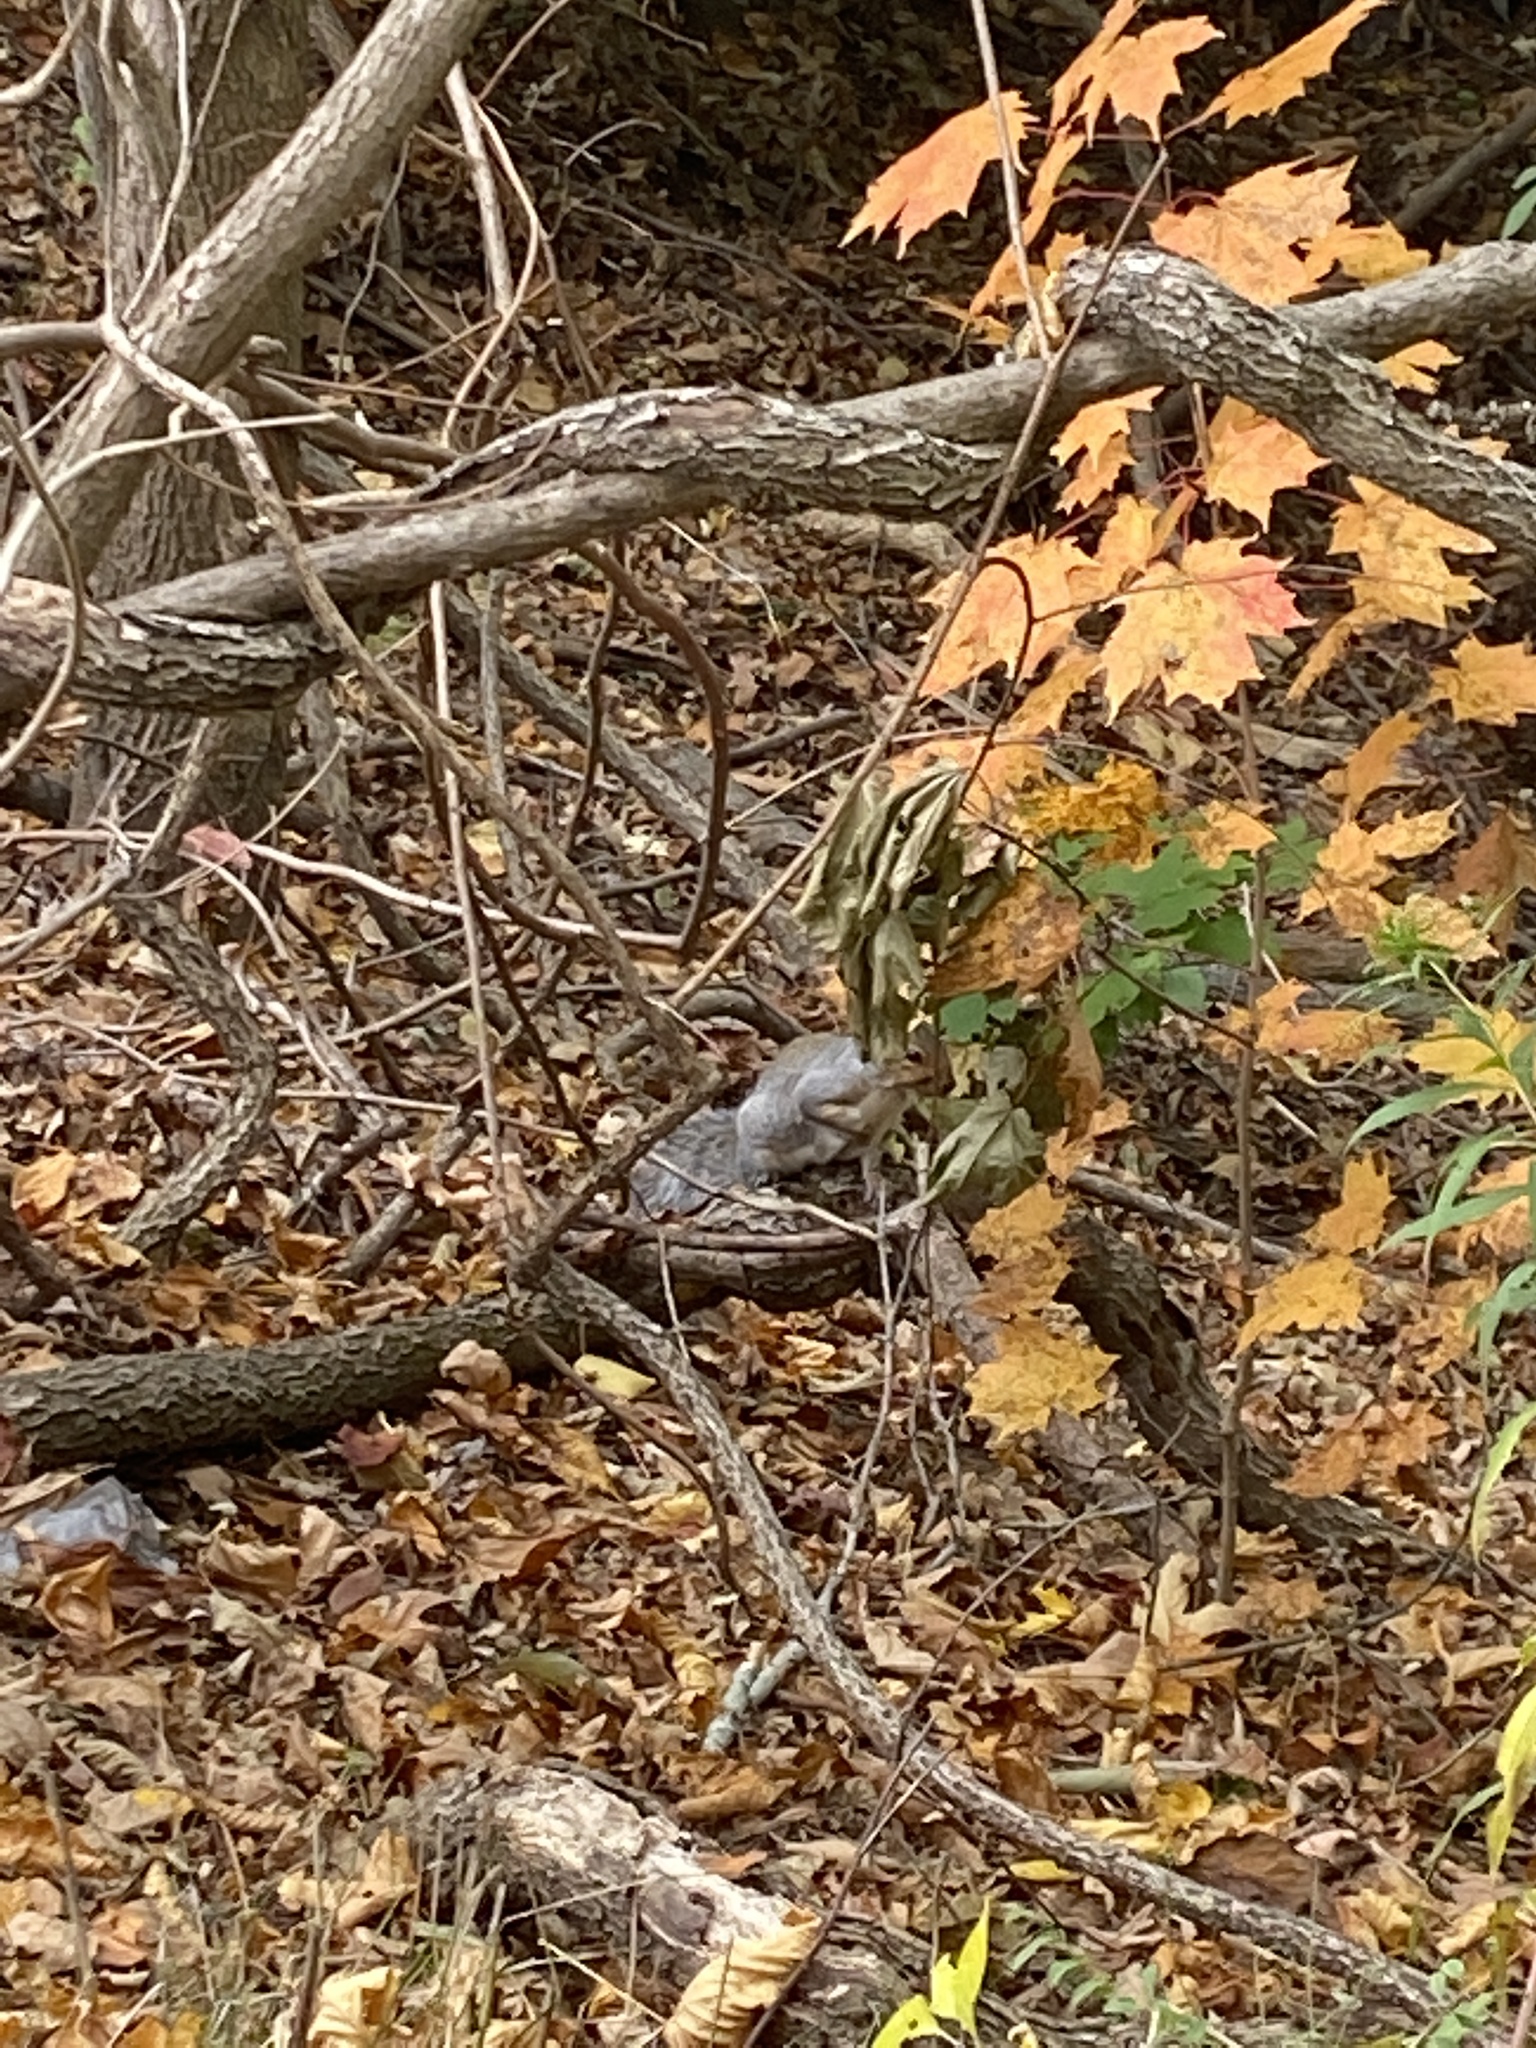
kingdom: Animalia
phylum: Chordata
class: Mammalia
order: Rodentia
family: Sciuridae
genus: Sciurus
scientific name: Sciurus carolinensis
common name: Eastern gray squirrel
